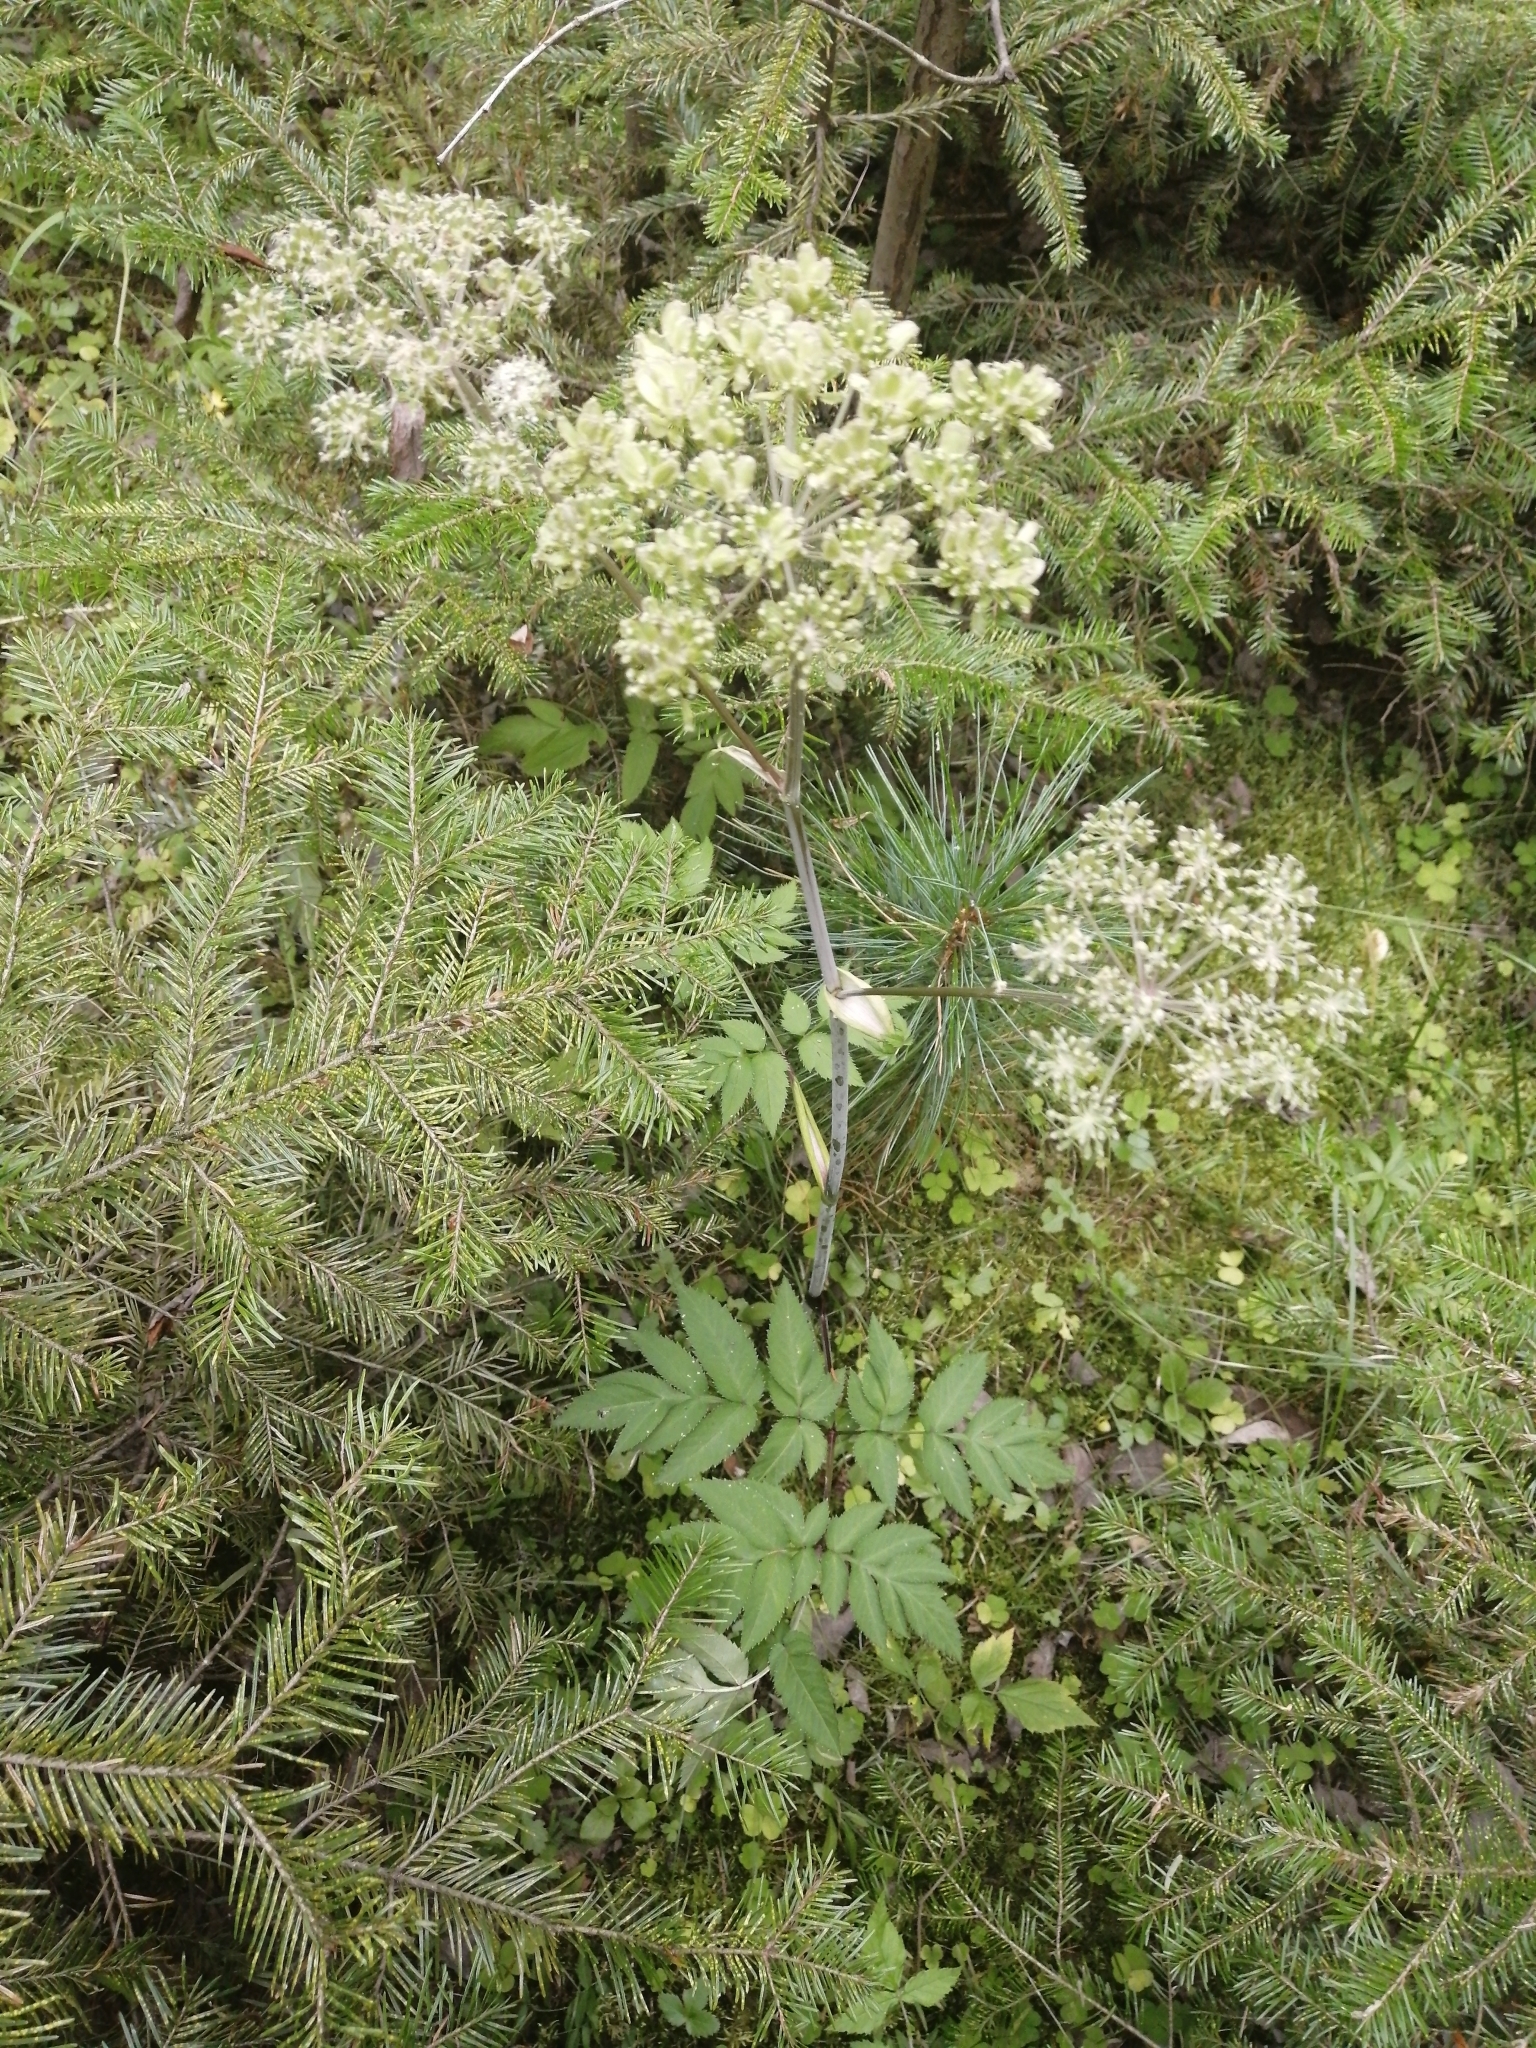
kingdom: Plantae
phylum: Tracheophyta
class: Magnoliopsida
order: Apiales
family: Apiaceae
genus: Angelica
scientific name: Angelica sylvestris
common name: Wild angelica
